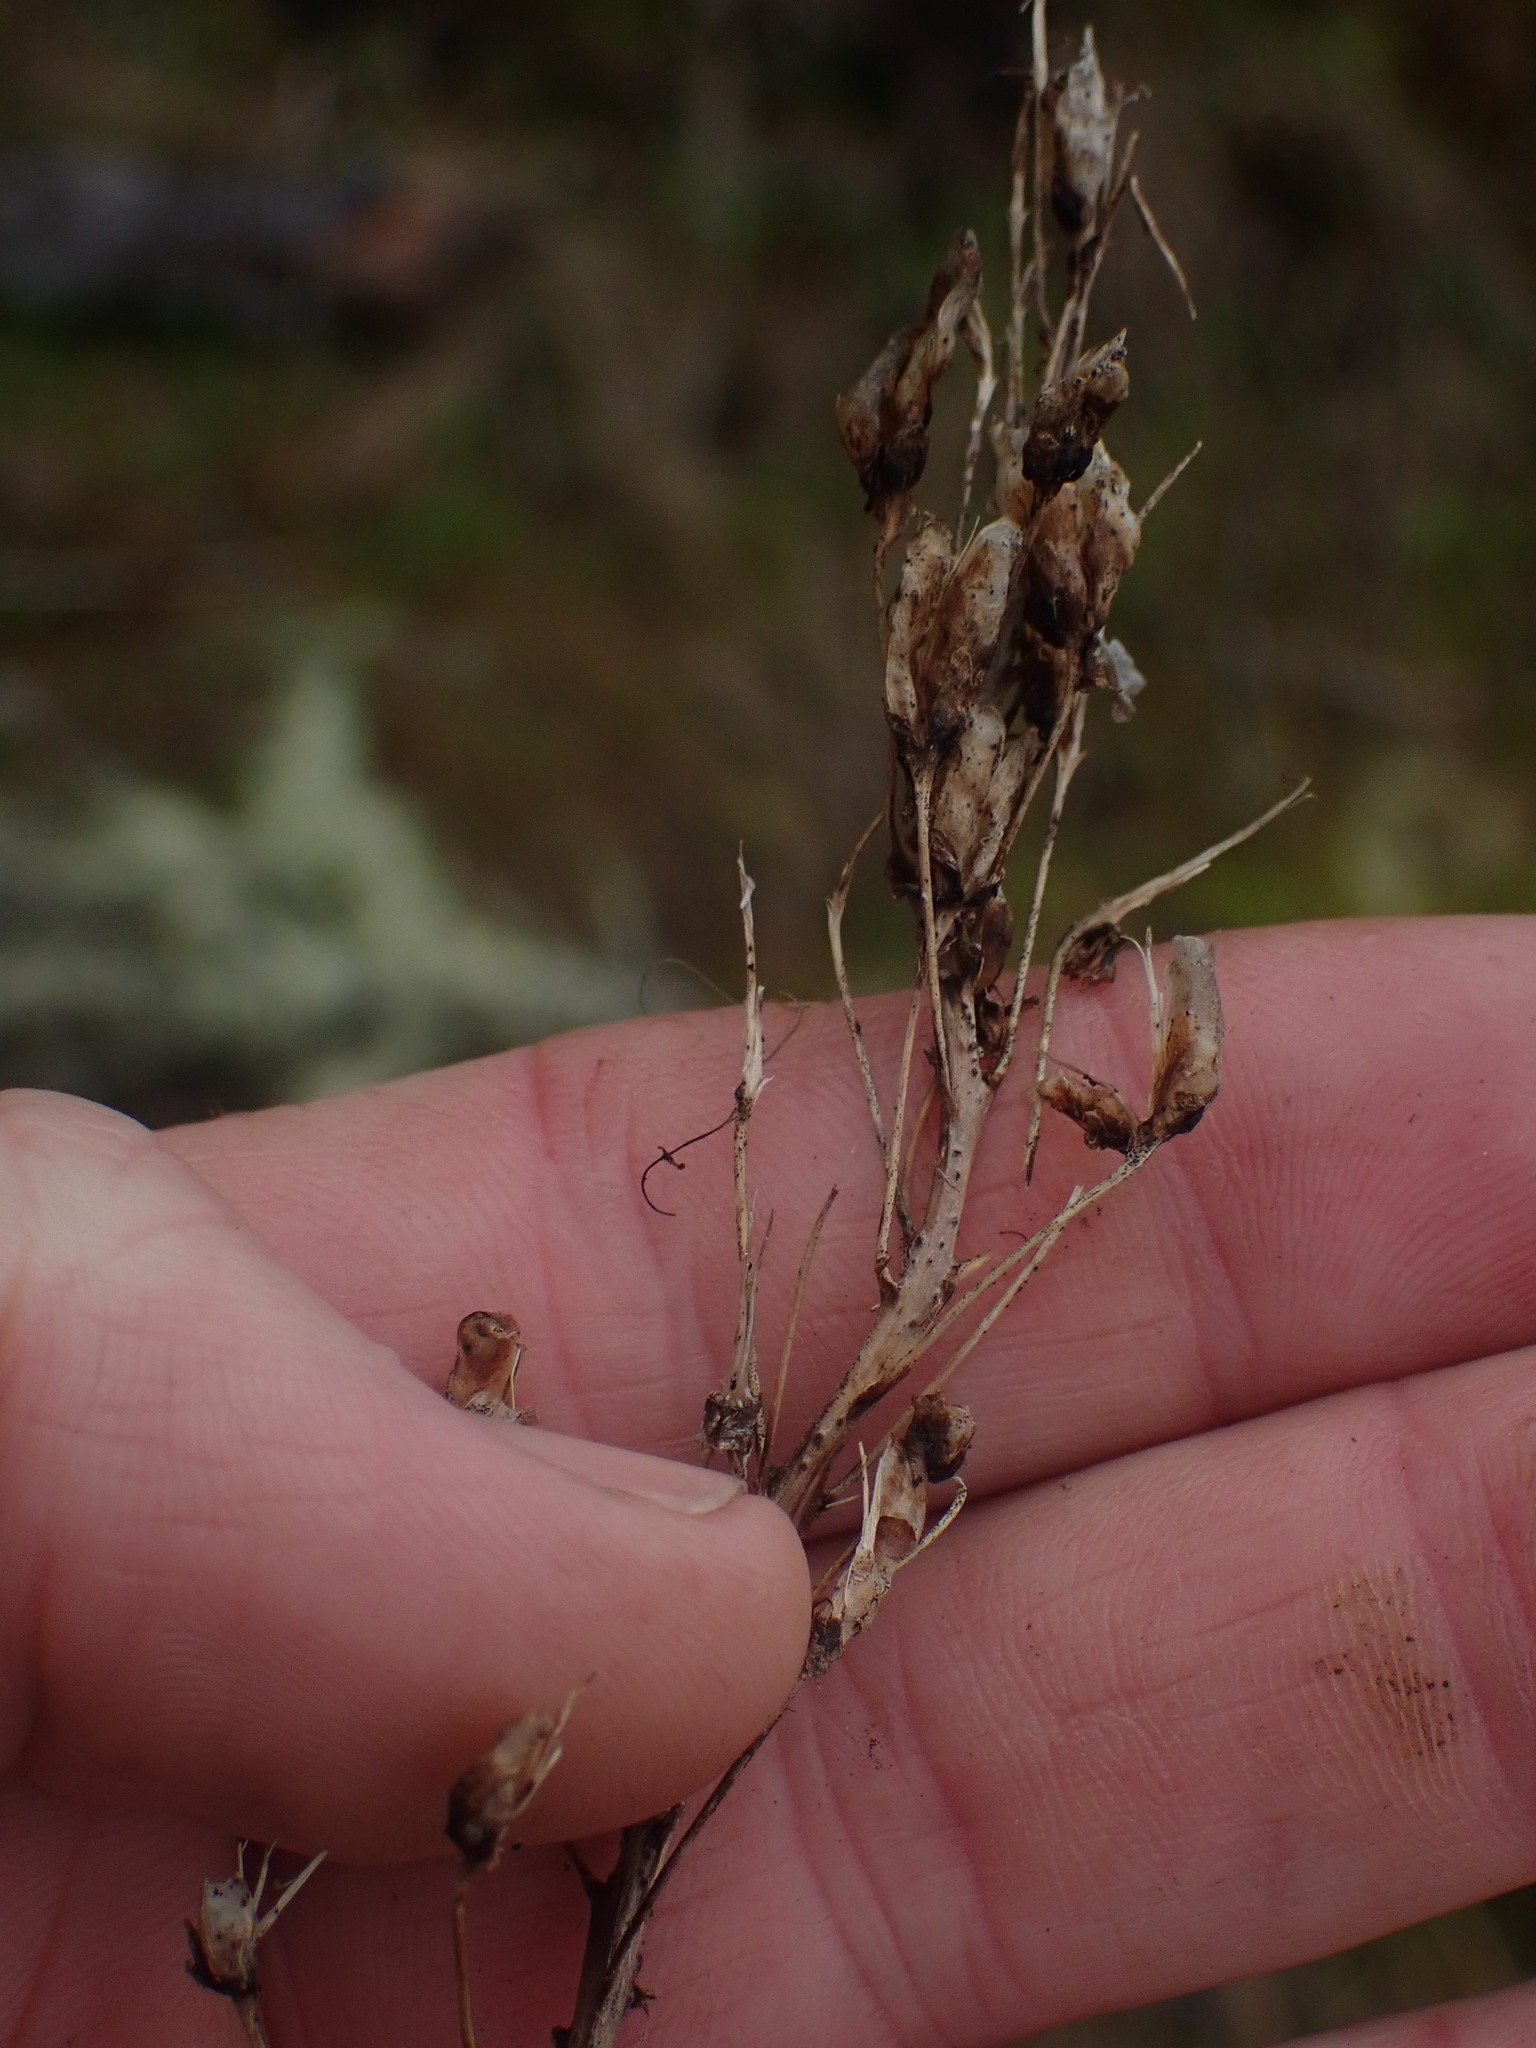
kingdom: Plantae
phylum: Tracheophyta
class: Liliopsida
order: Liliales
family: Melanthiaceae
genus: Toxicoscordion
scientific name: Toxicoscordion venenosum
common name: Meadow death camas
